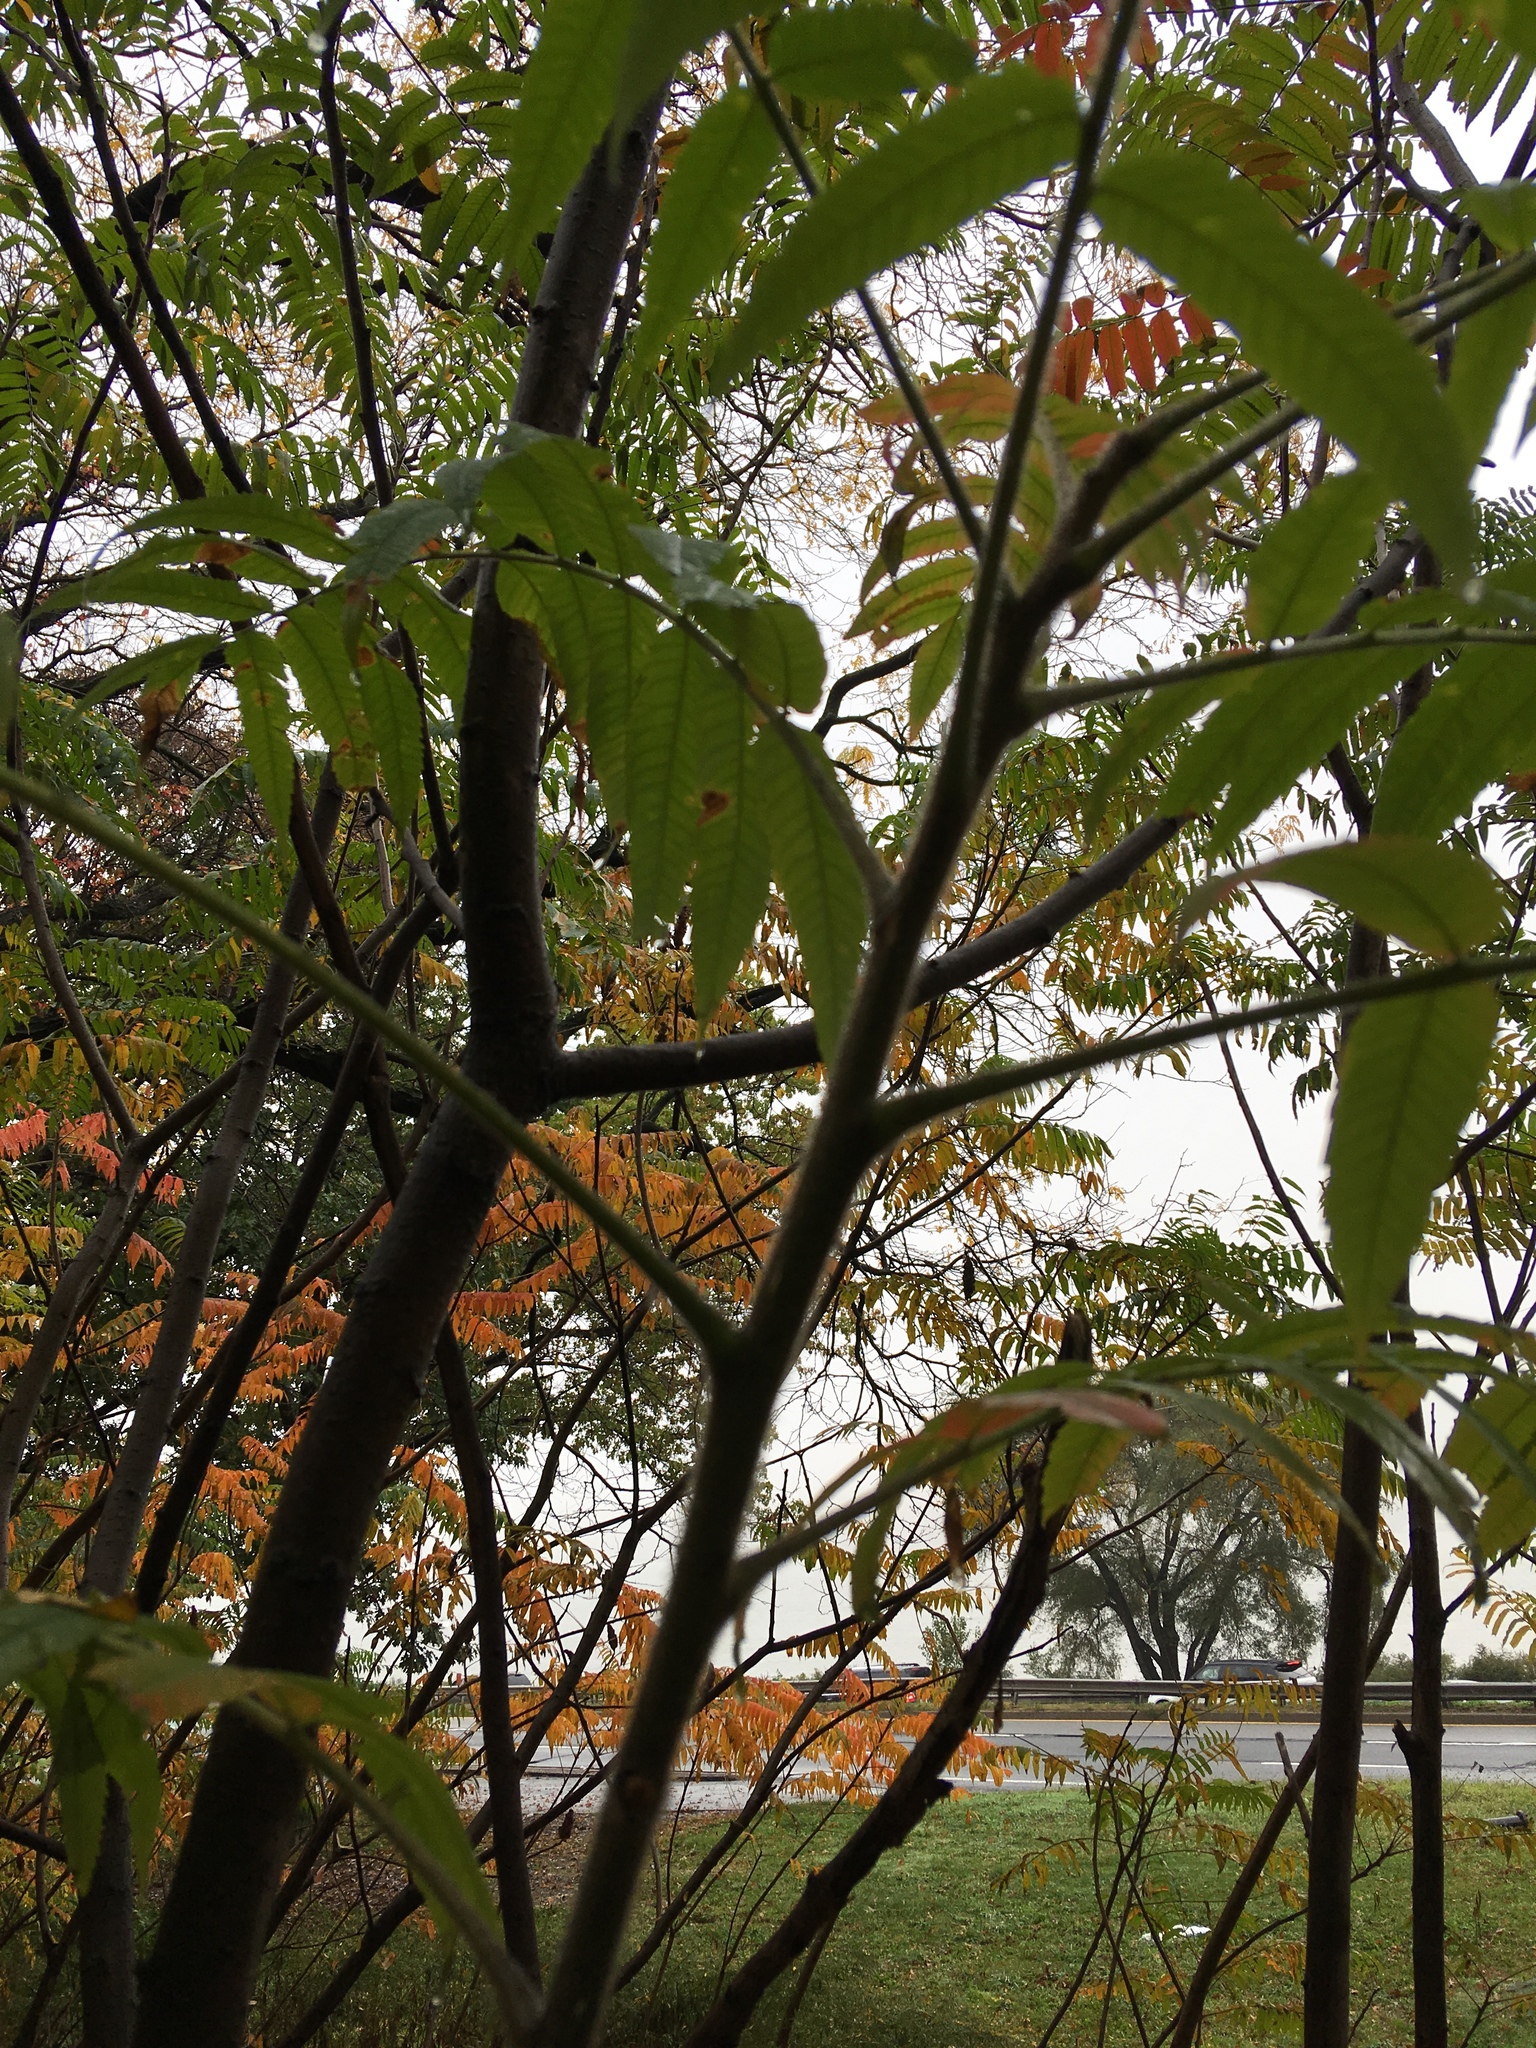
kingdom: Plantae
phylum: Tracheophyta
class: Magnoliopsida
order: Sapindales
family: Anacardiaceae
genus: Rhus
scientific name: Rhus typhina
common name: Staghorn sumac
